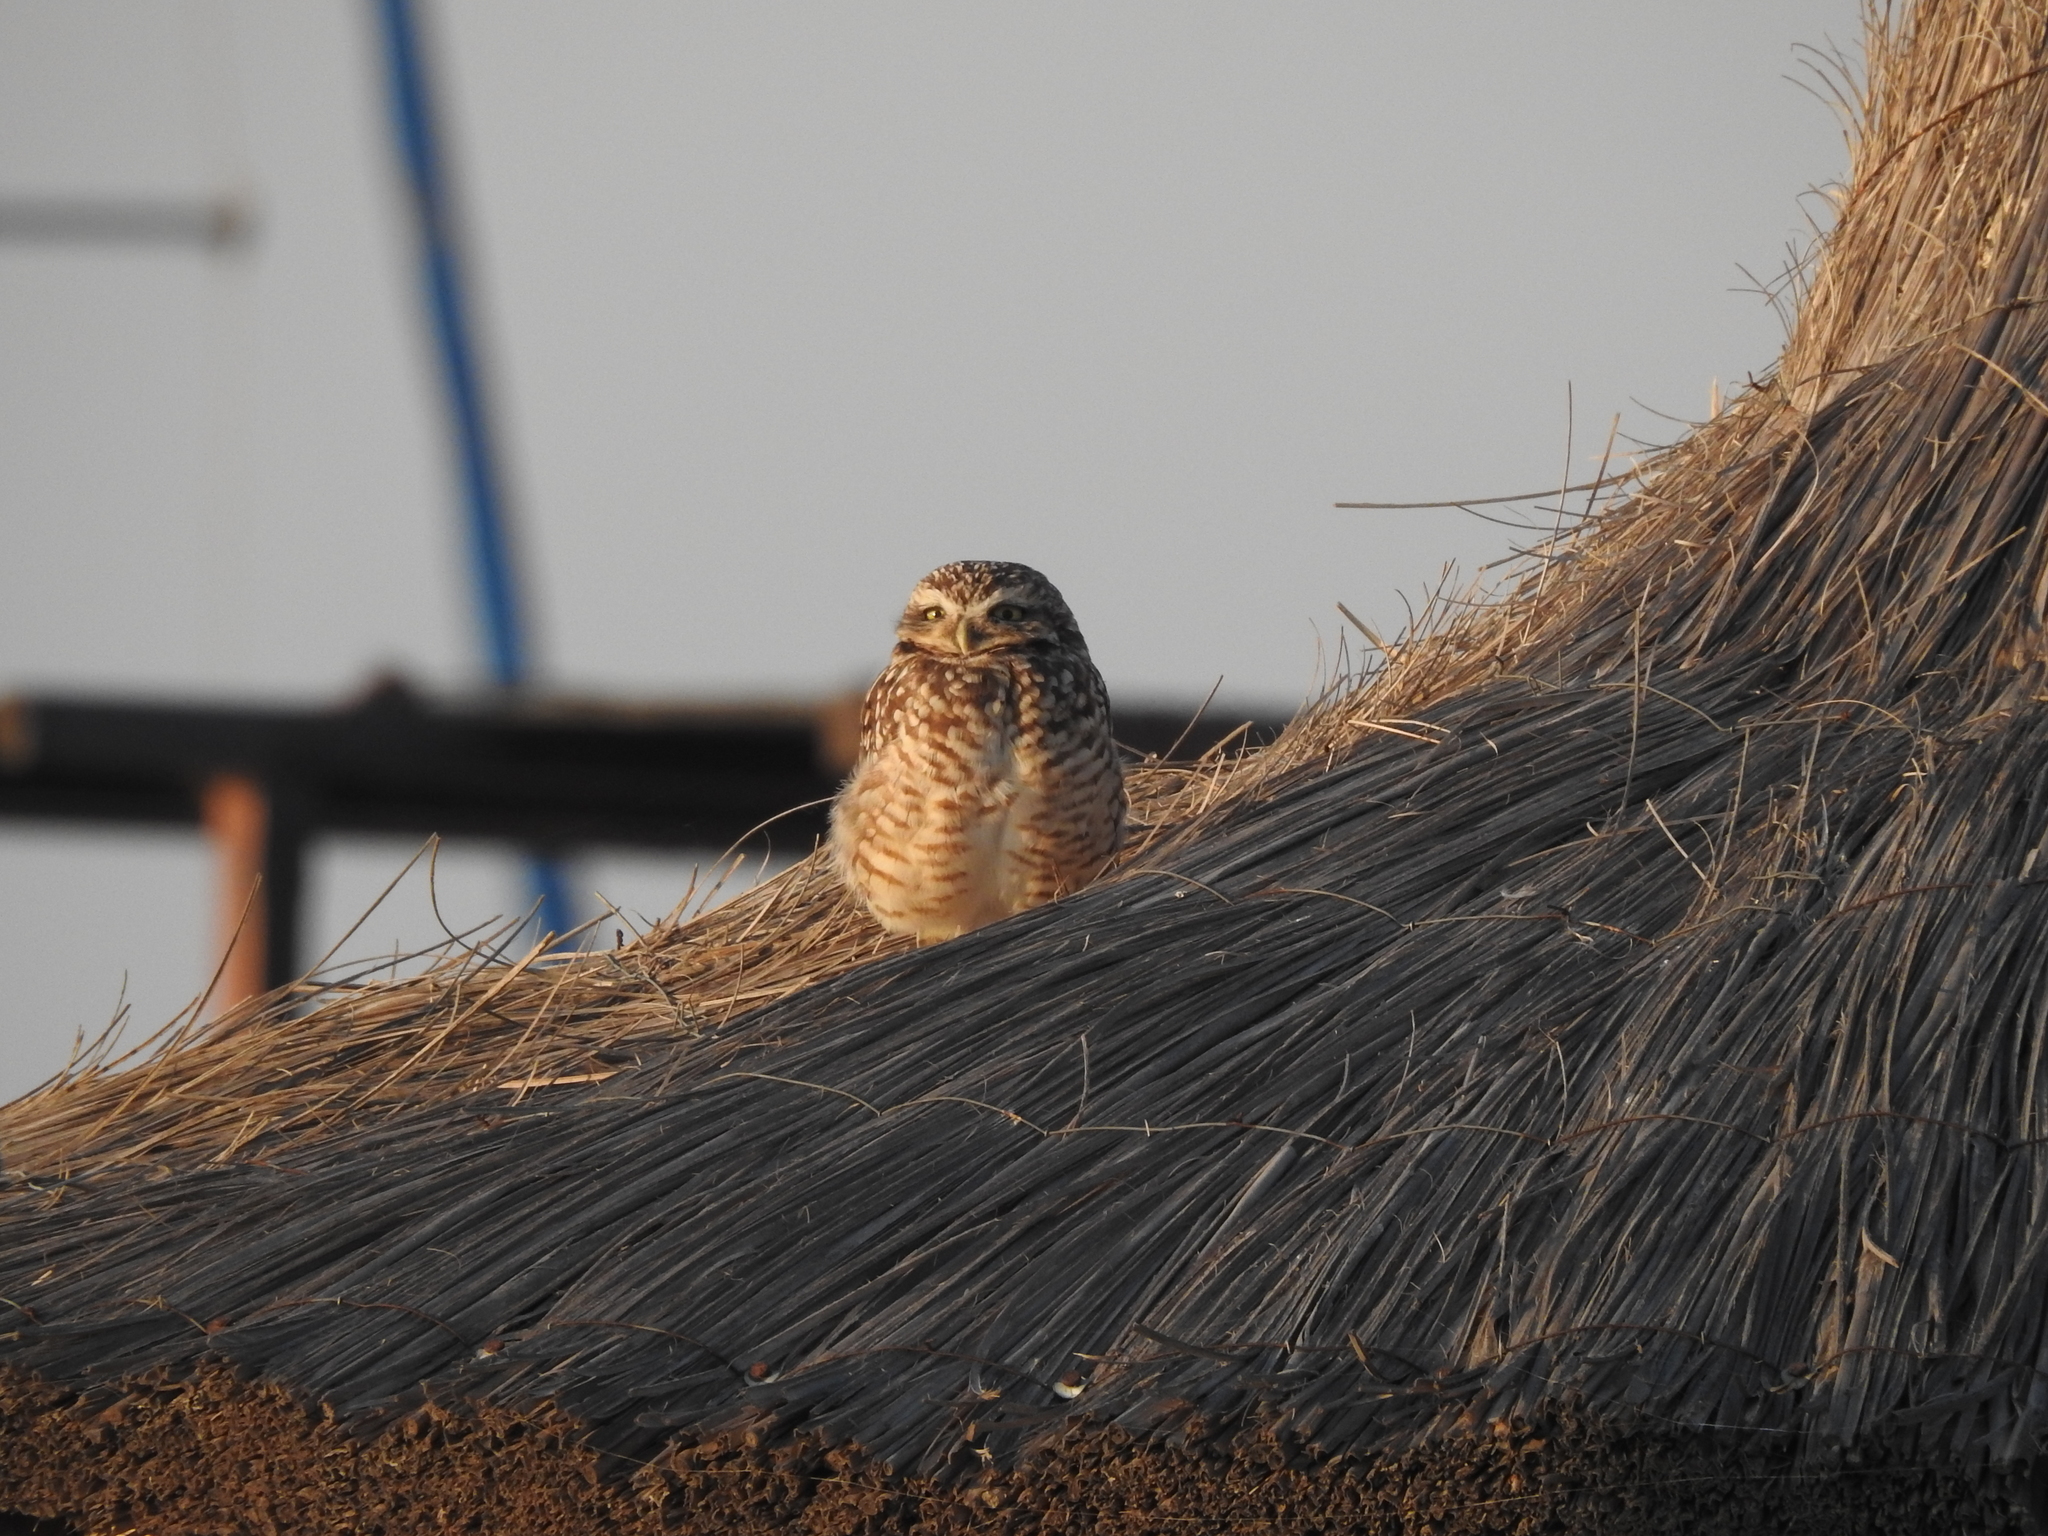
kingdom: Animalia
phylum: Chordata
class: Aves
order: Strigiformes
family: Strigidae
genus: Athene
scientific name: Athene cunicularia
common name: Burrowing owl
